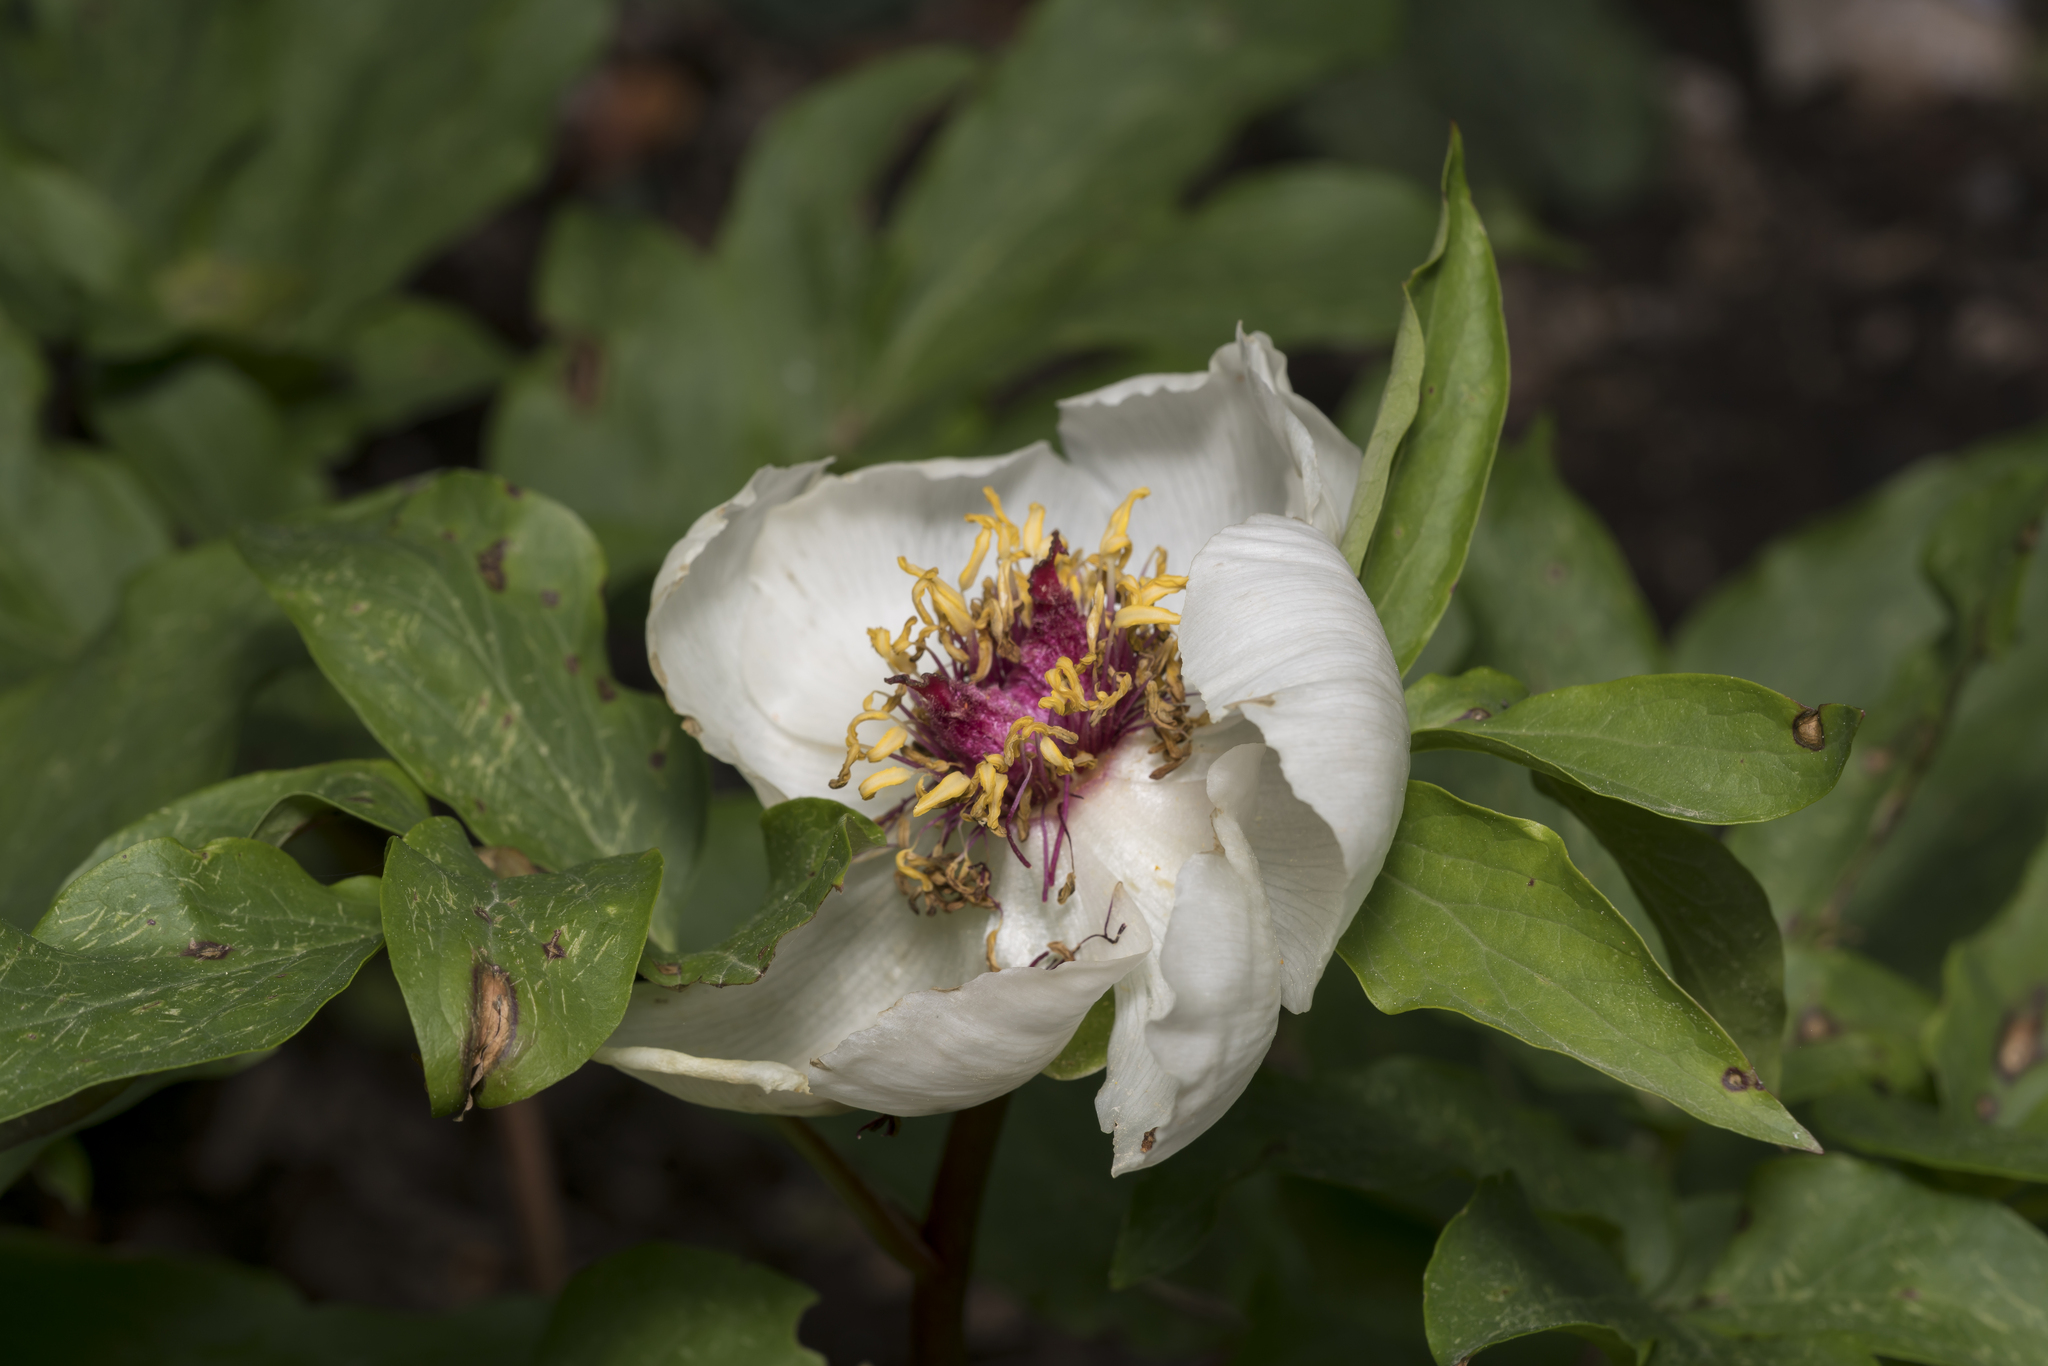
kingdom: Plantae
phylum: Tracheophyta
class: Magnoliopsida
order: Saxifragales
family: Paeoniaceae
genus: Paeonia
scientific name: Paeonia clusii
